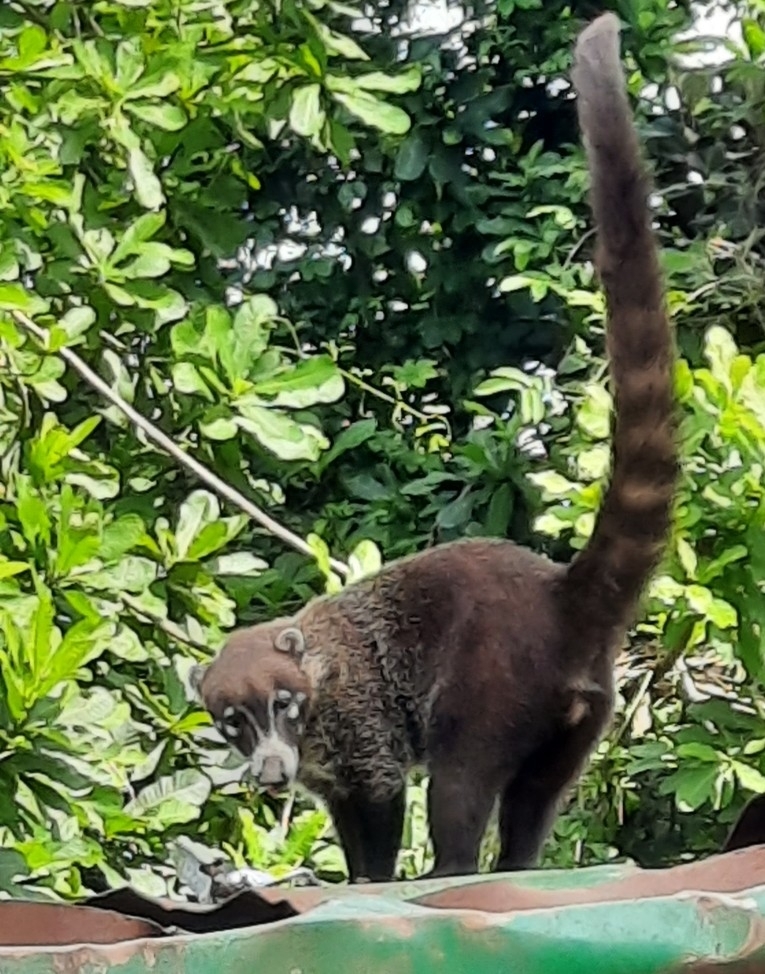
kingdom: Animalia
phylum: Chordata
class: Mammalia
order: Carnivora
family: Procyonidae
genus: Nasua
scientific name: Nasua narica
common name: White-nosed coati
